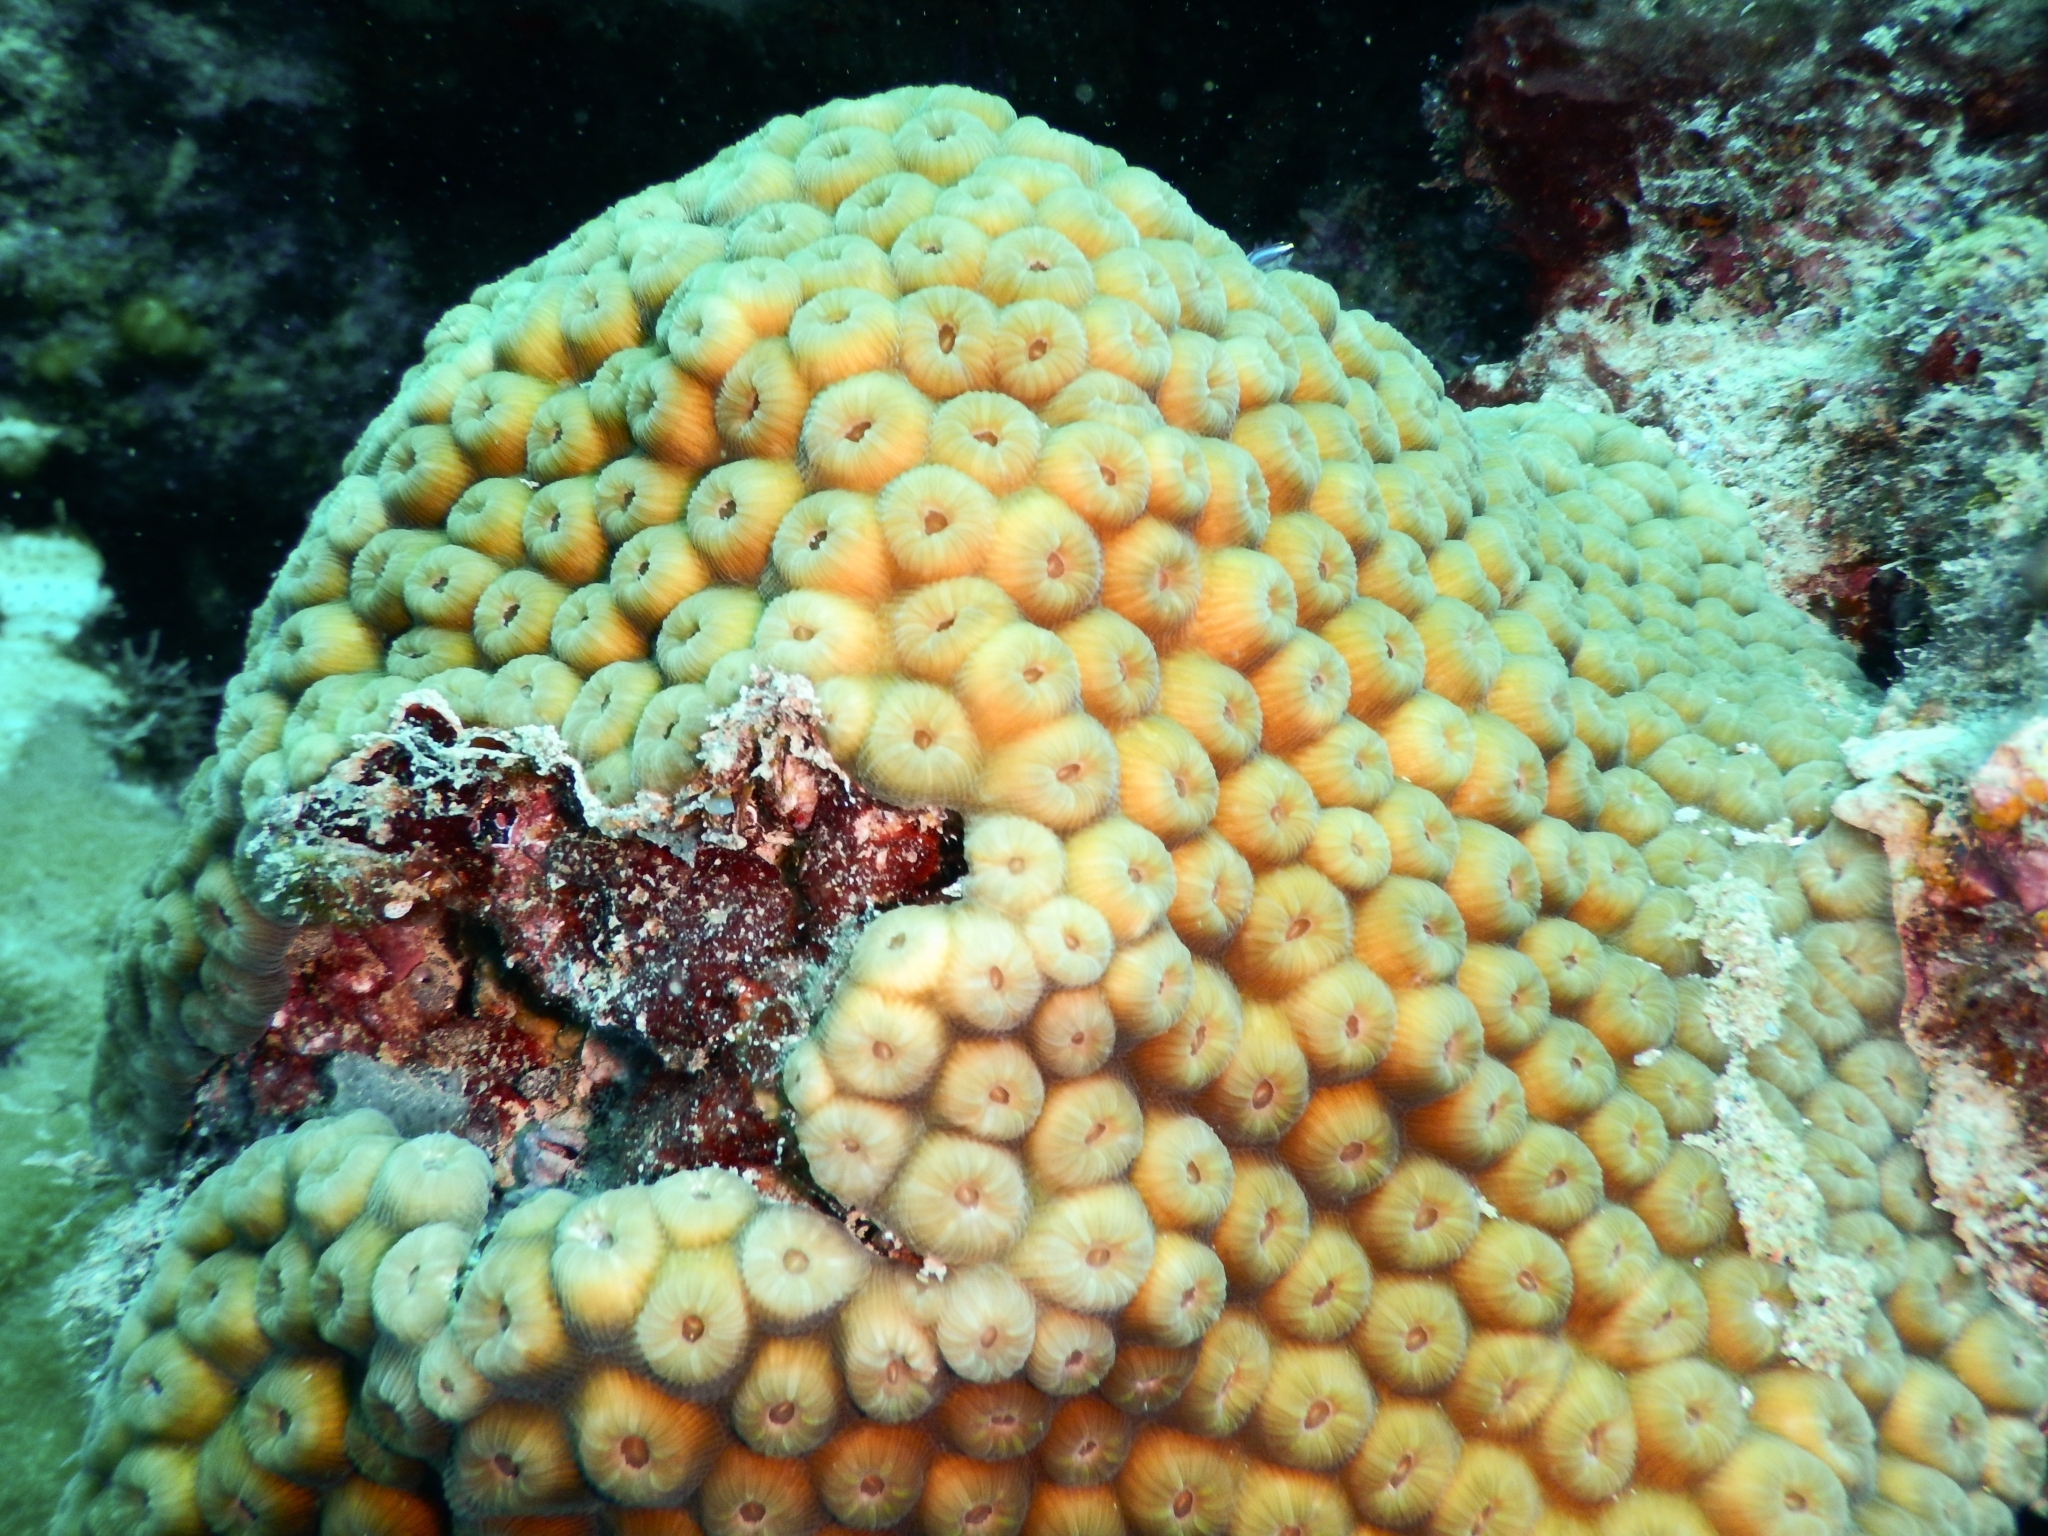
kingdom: Animalia
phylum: Cnidaria
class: Anthozoa
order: Scleractinia
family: Montastraeidae
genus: Montastraea
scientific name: Montastraea cavernosa
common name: Great star coral
